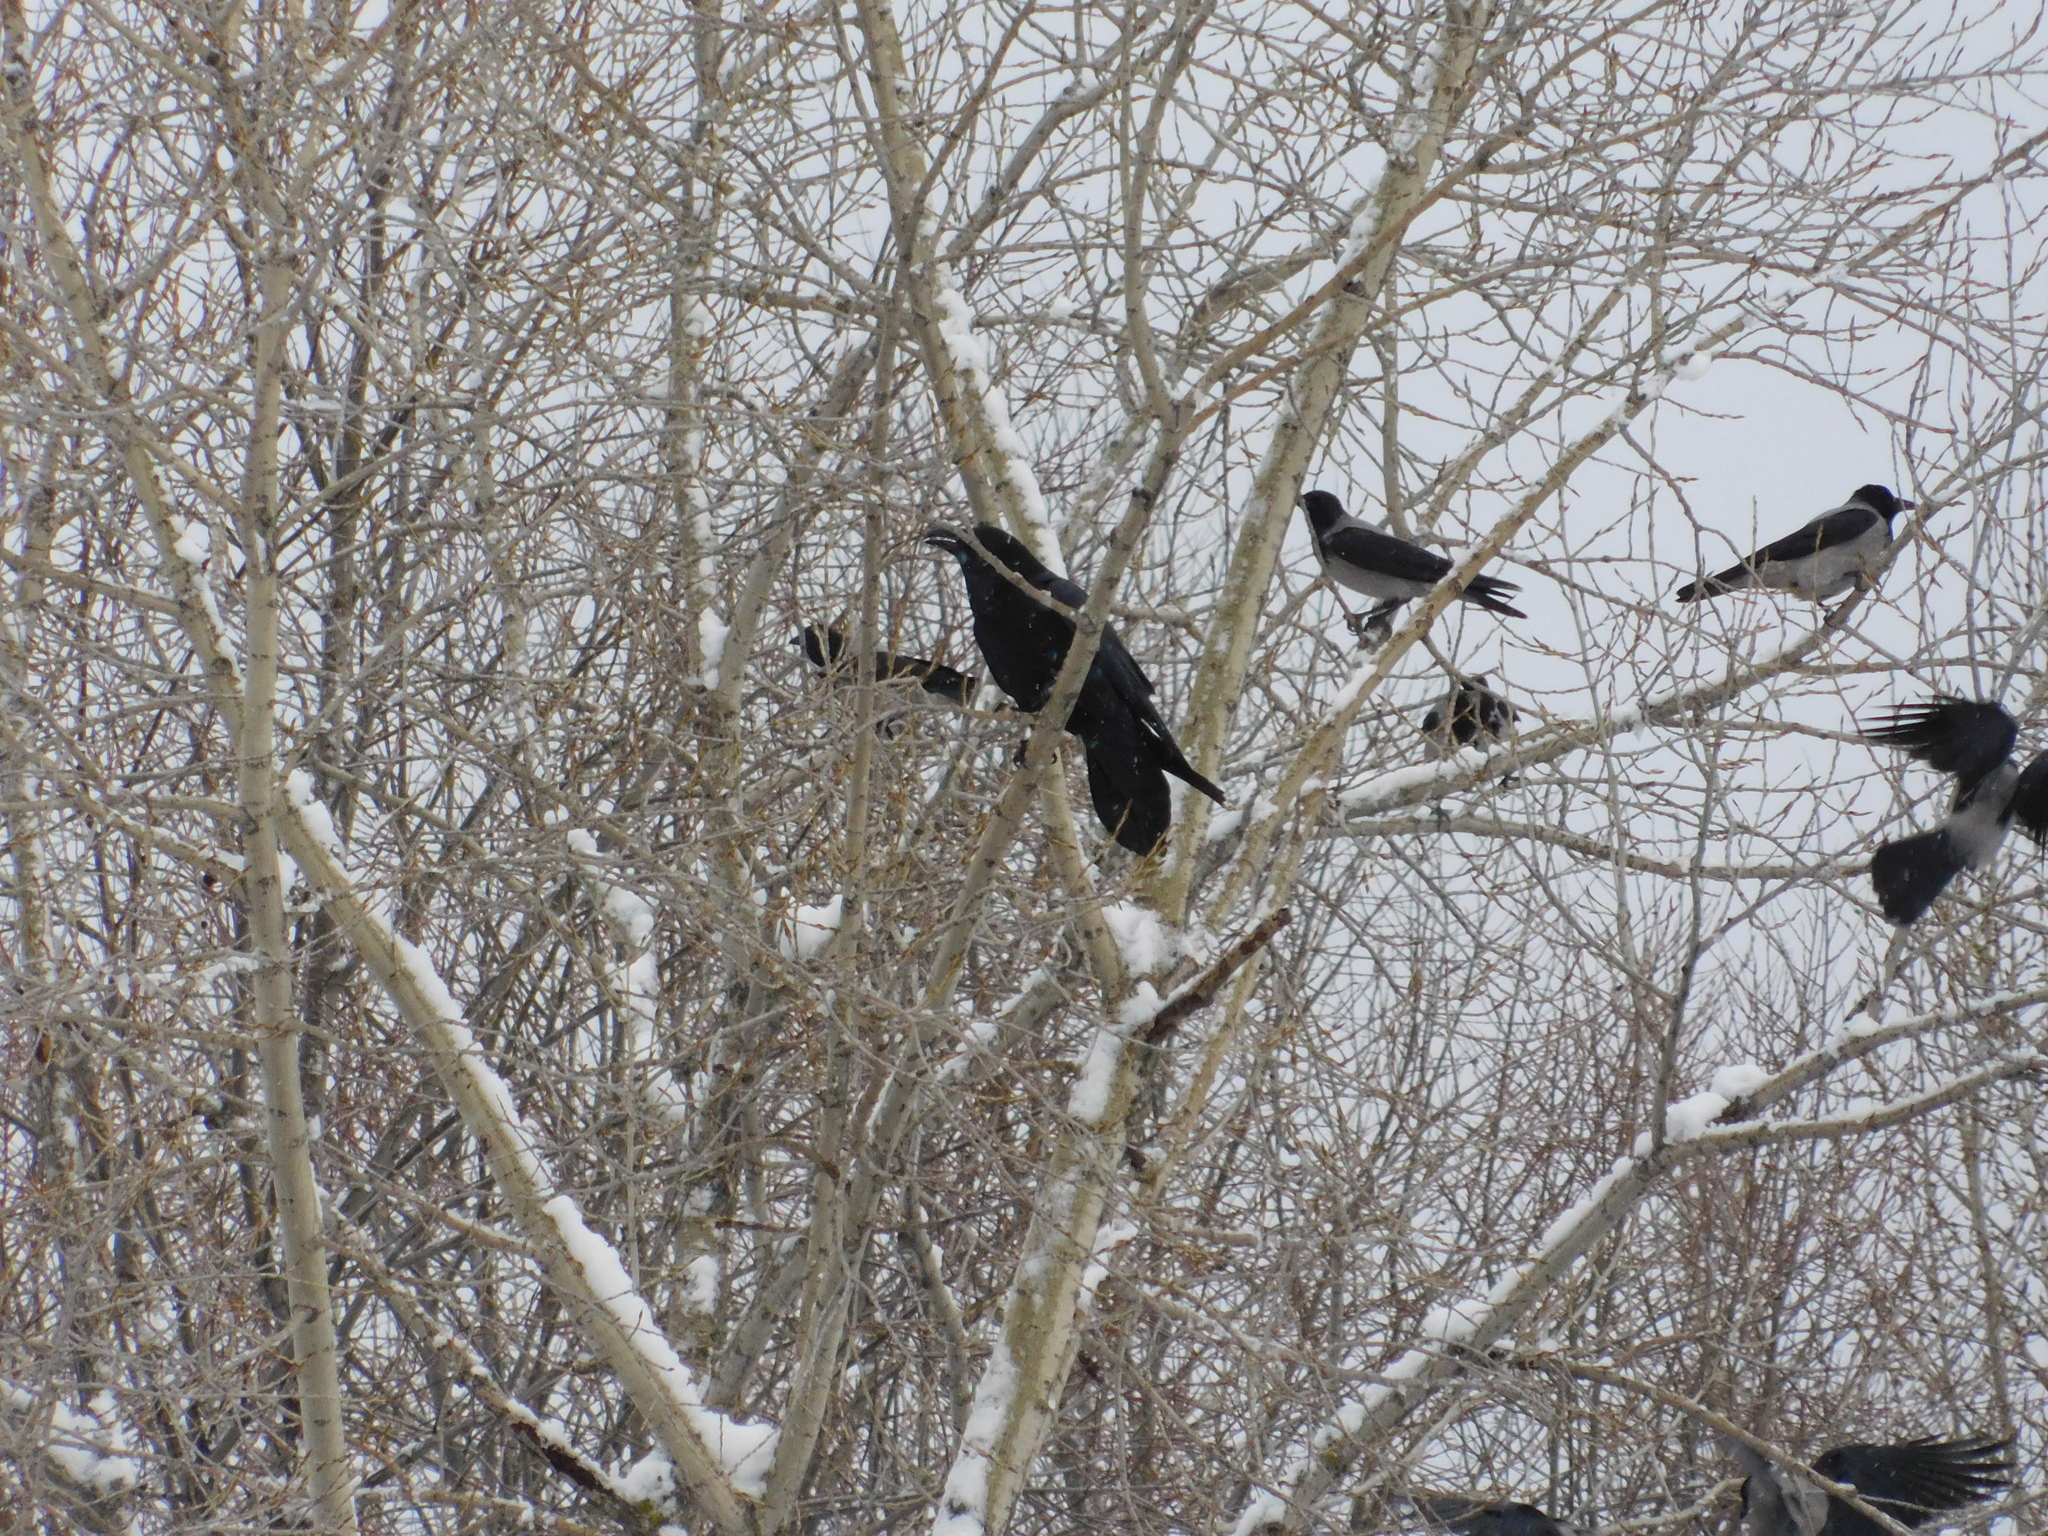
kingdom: Animalia
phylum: Chordata
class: Aves
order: Passeriformes
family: Corvidae
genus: Corvus
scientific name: Corvus corax
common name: Common raven
